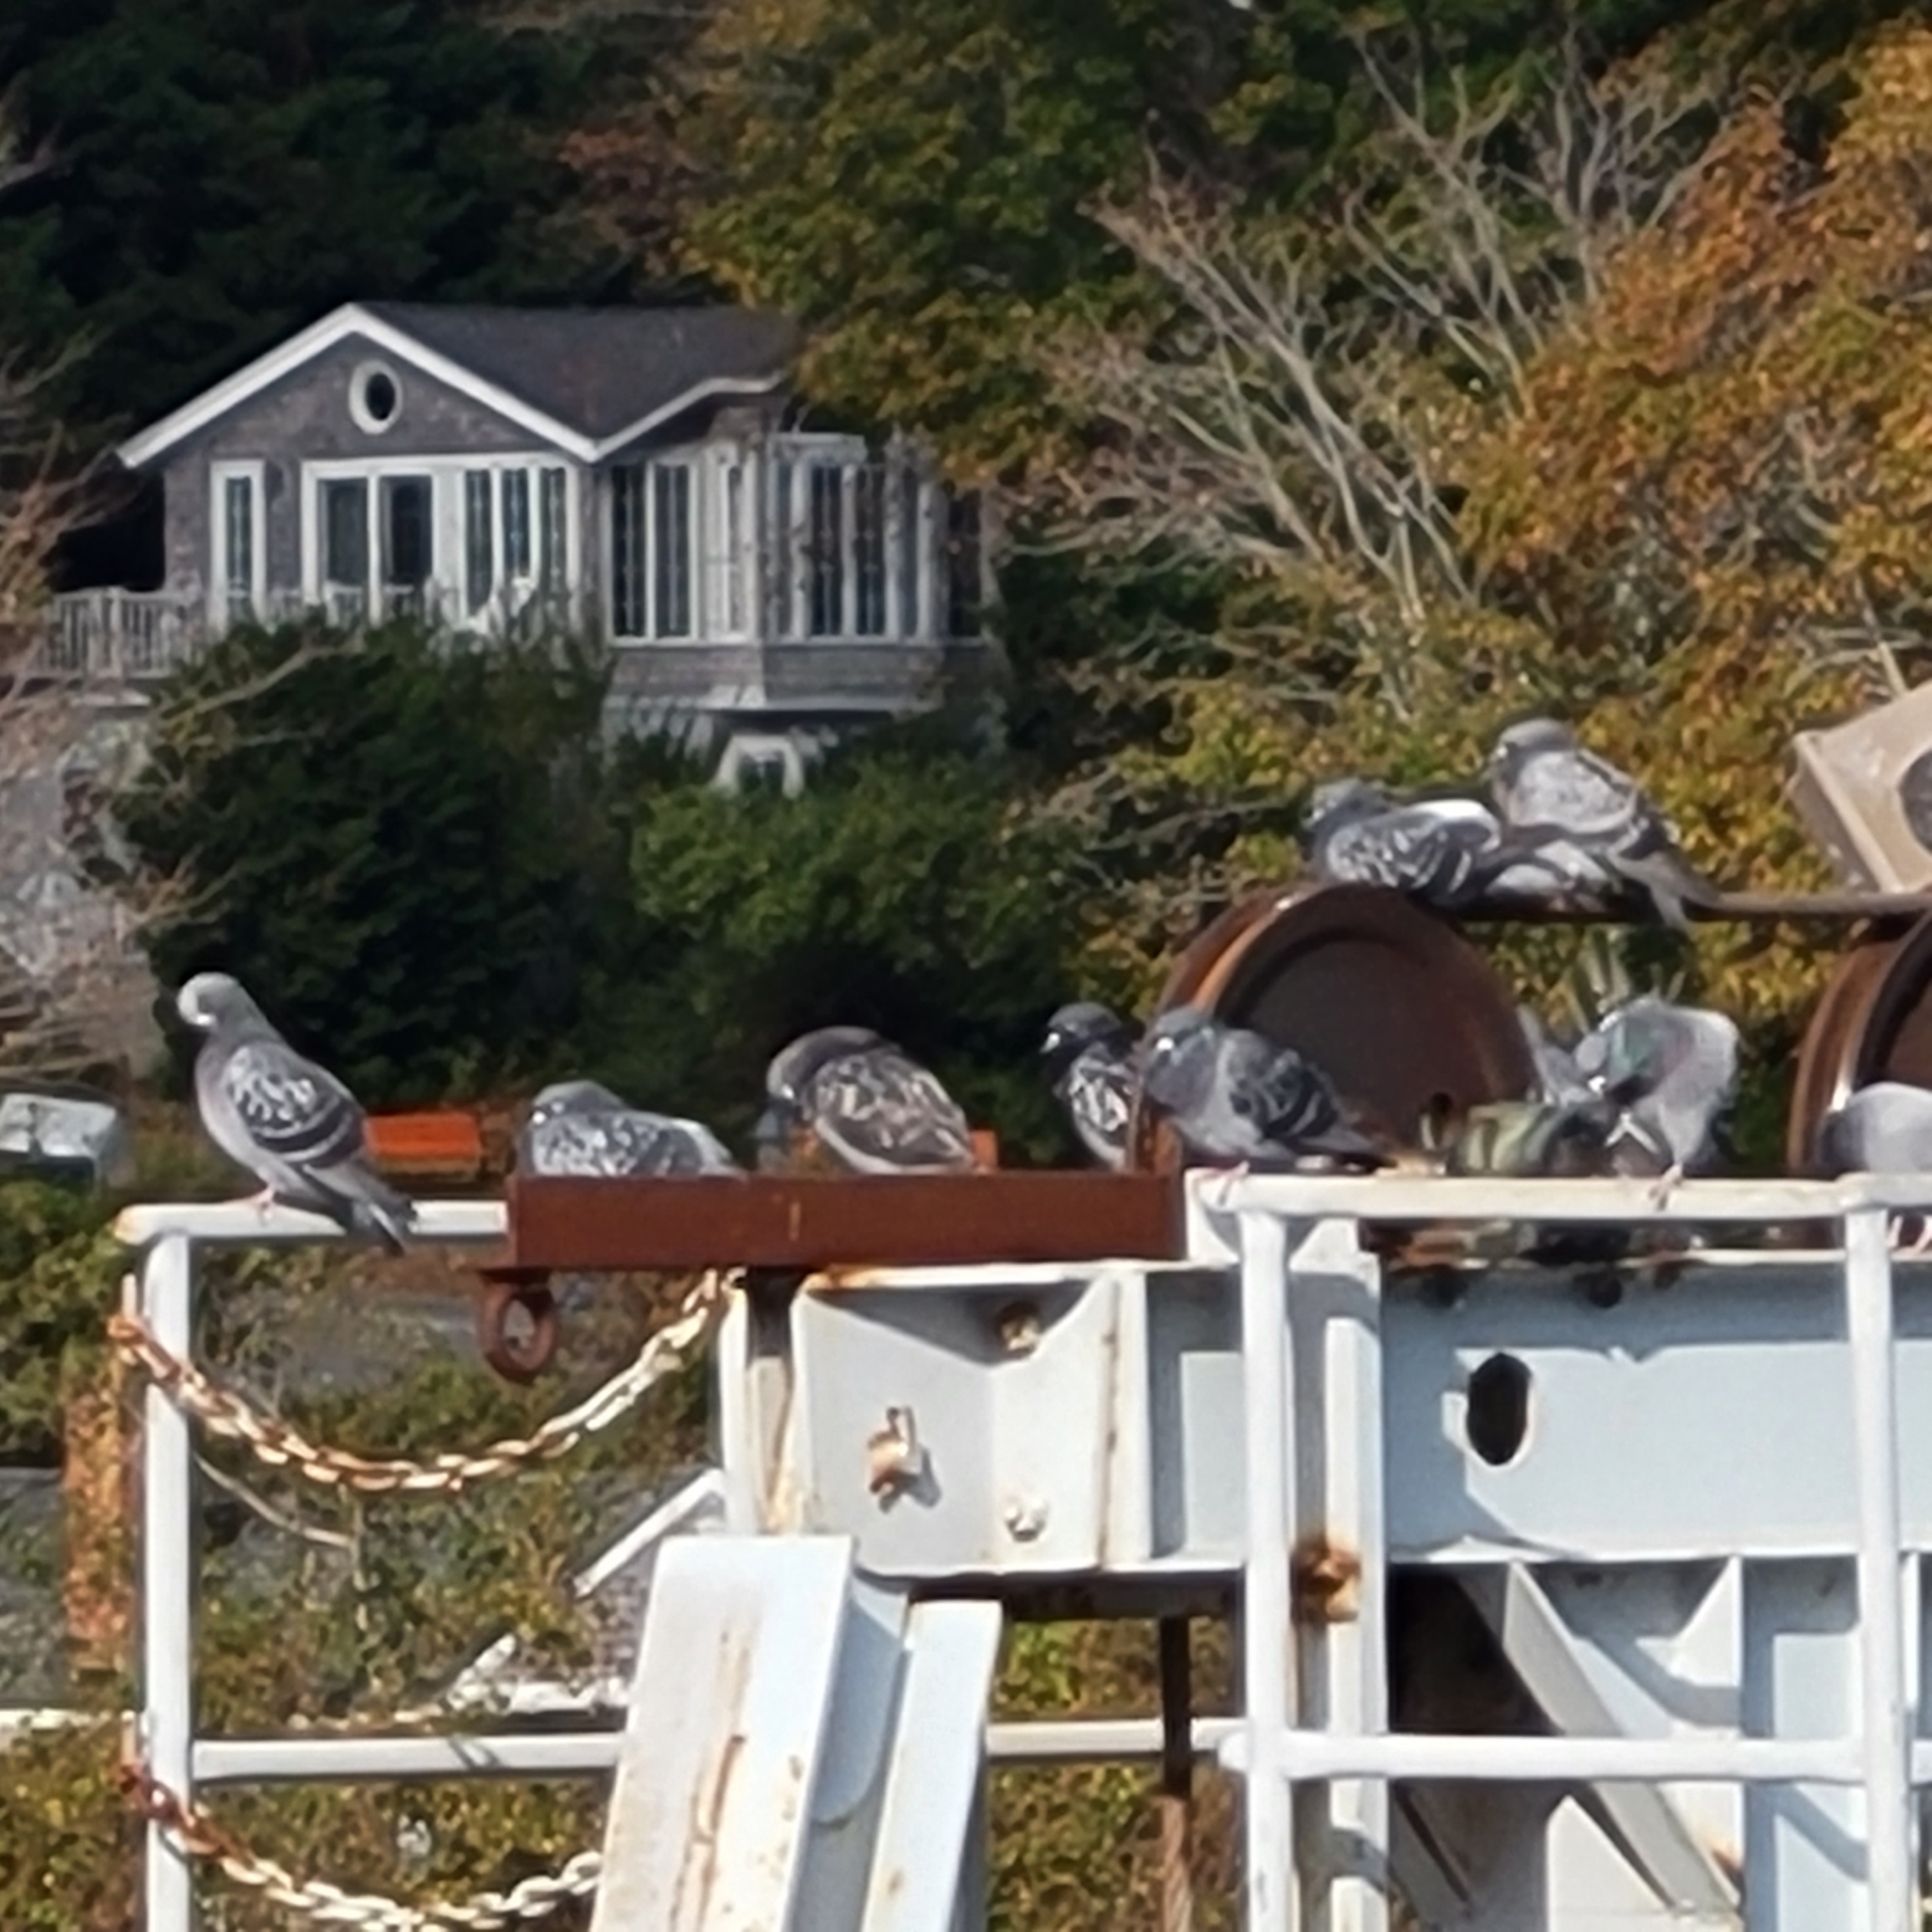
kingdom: Animalia
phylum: Chordata
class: Aves
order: Columbiformes
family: Columbidae
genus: Columba
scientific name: Columba livia
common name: Rock pigeon
